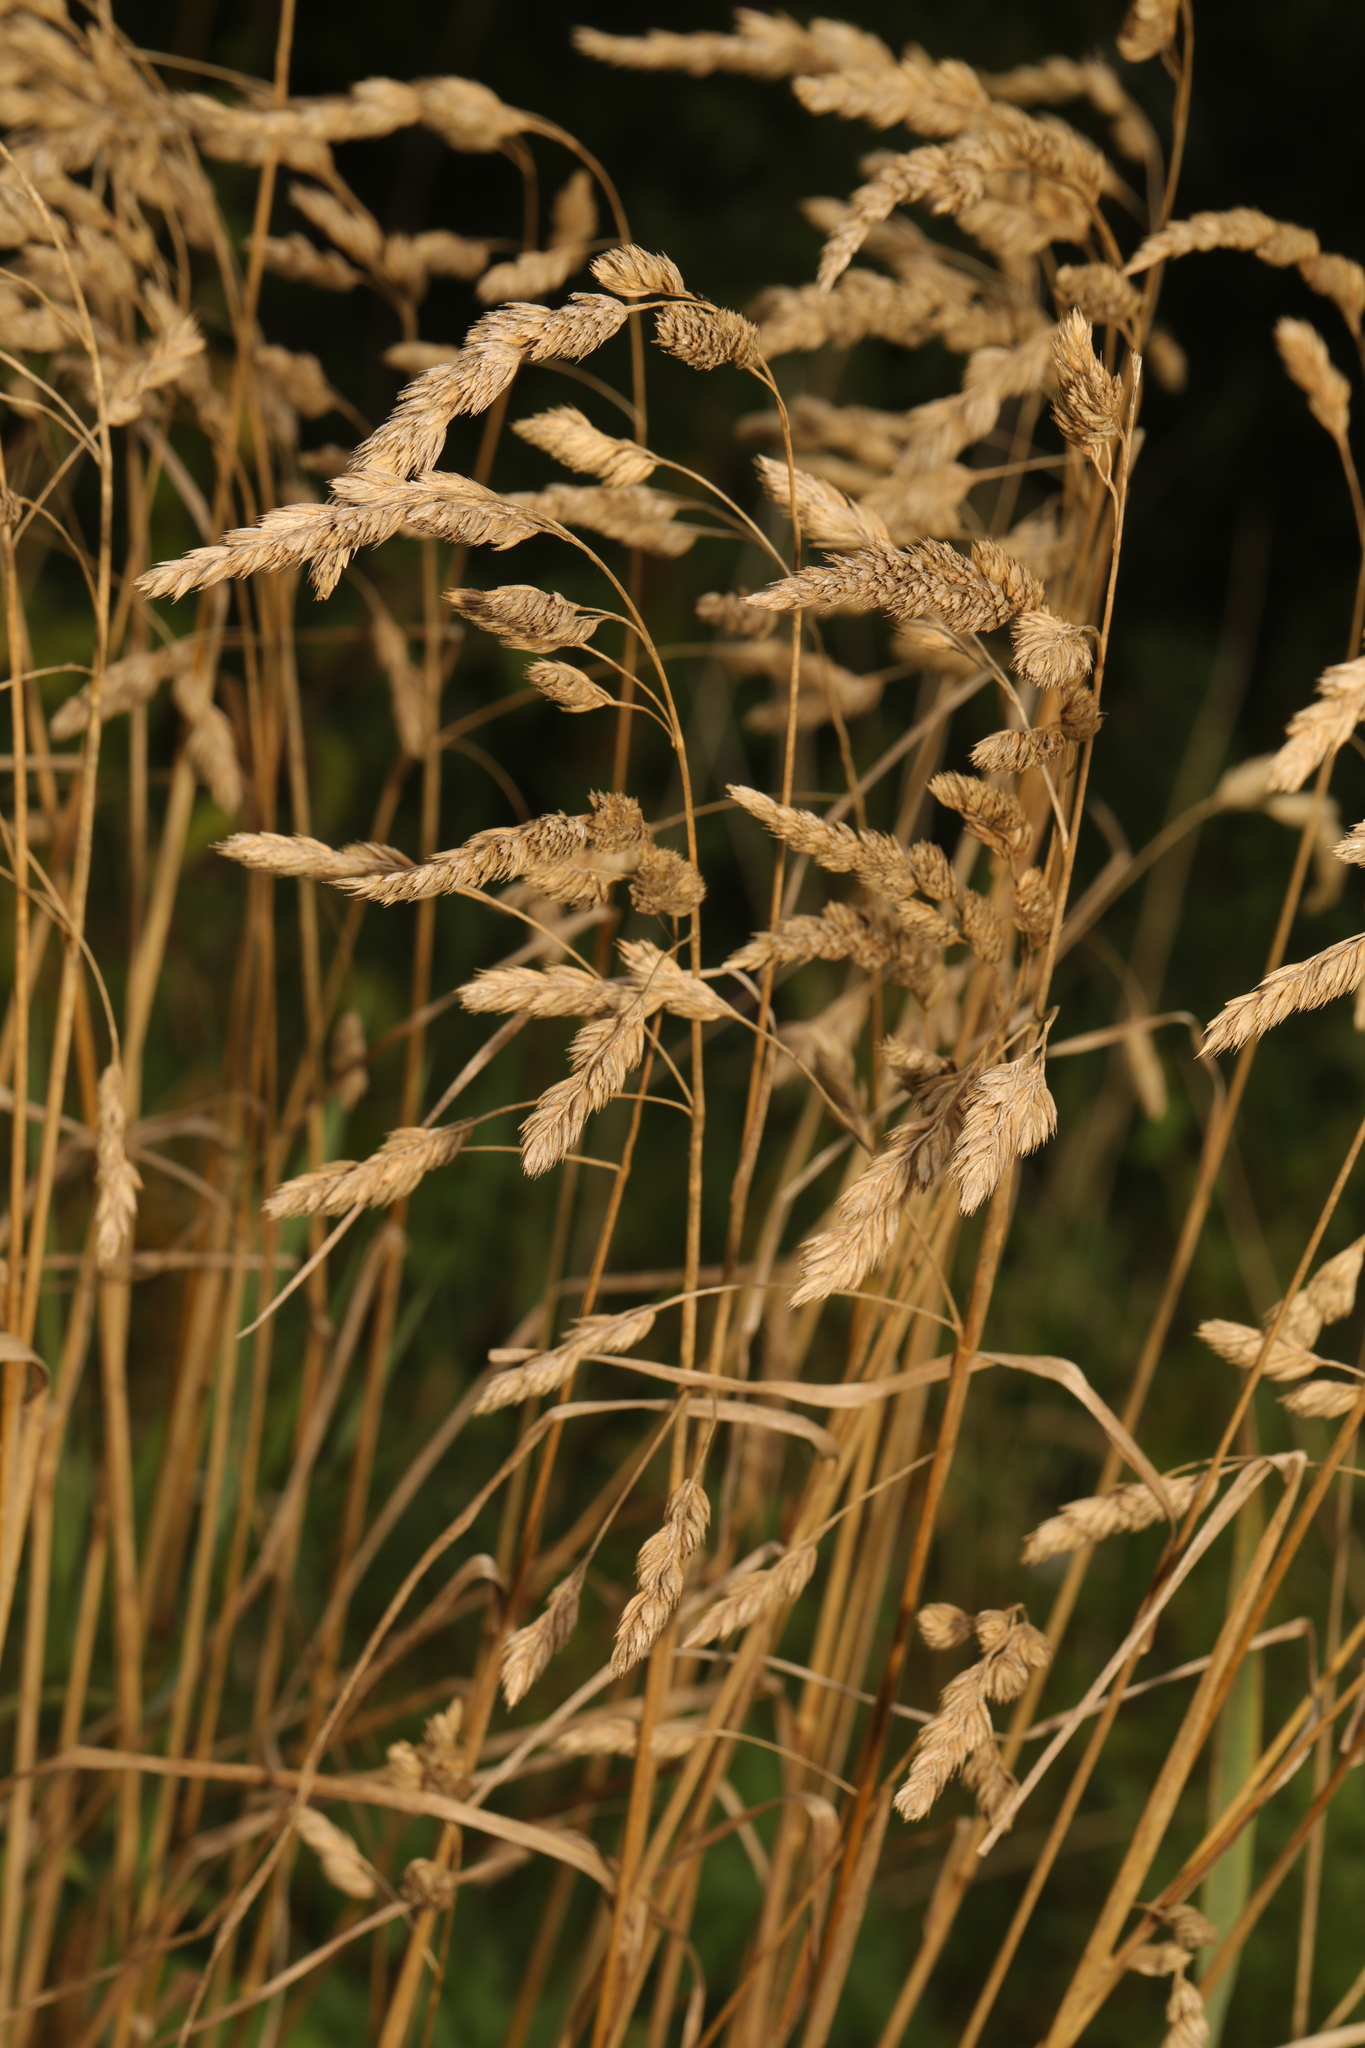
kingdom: Plantae
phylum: Tracheophyta
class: Liliopsida
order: Poales
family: Poaceae
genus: Dactylis
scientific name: Dactylis glomerata
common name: Orchardgrass
